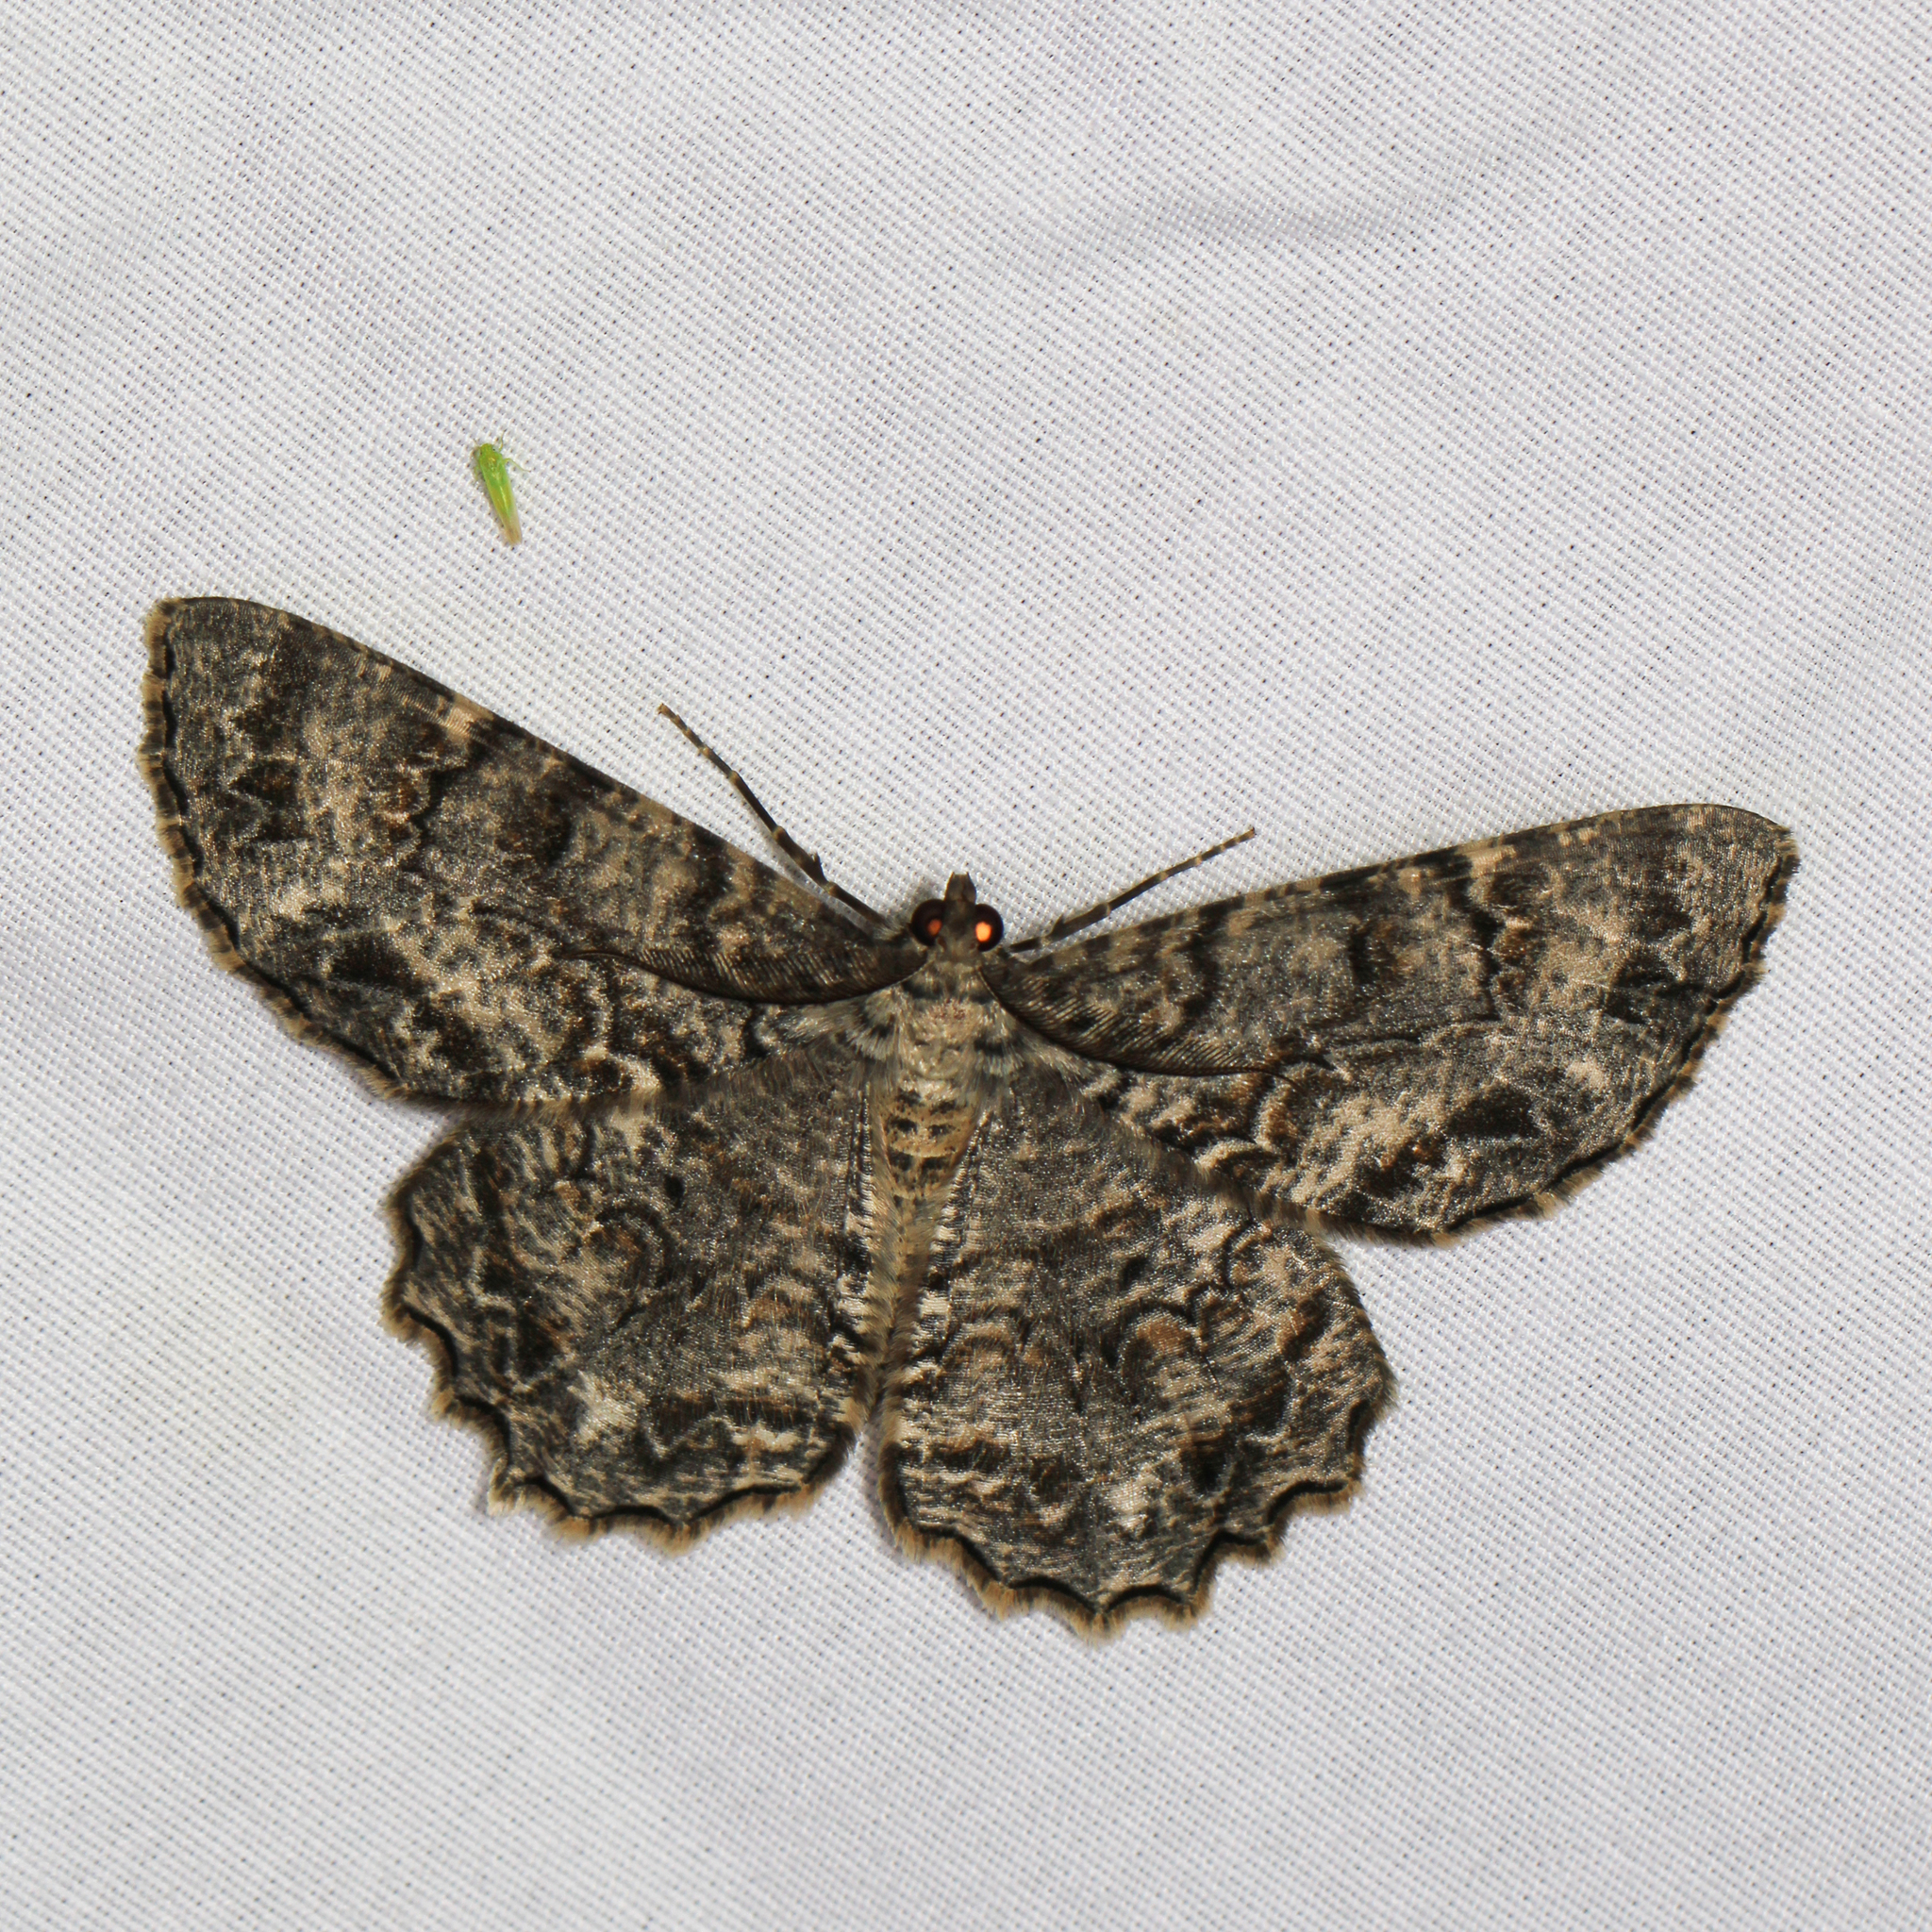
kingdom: Animalia
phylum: Arthropoda
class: Insecta
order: Lepidoptera
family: Geometridae
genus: Epimecis
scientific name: Epimecis hortaria
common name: Tulip-tree beauty
